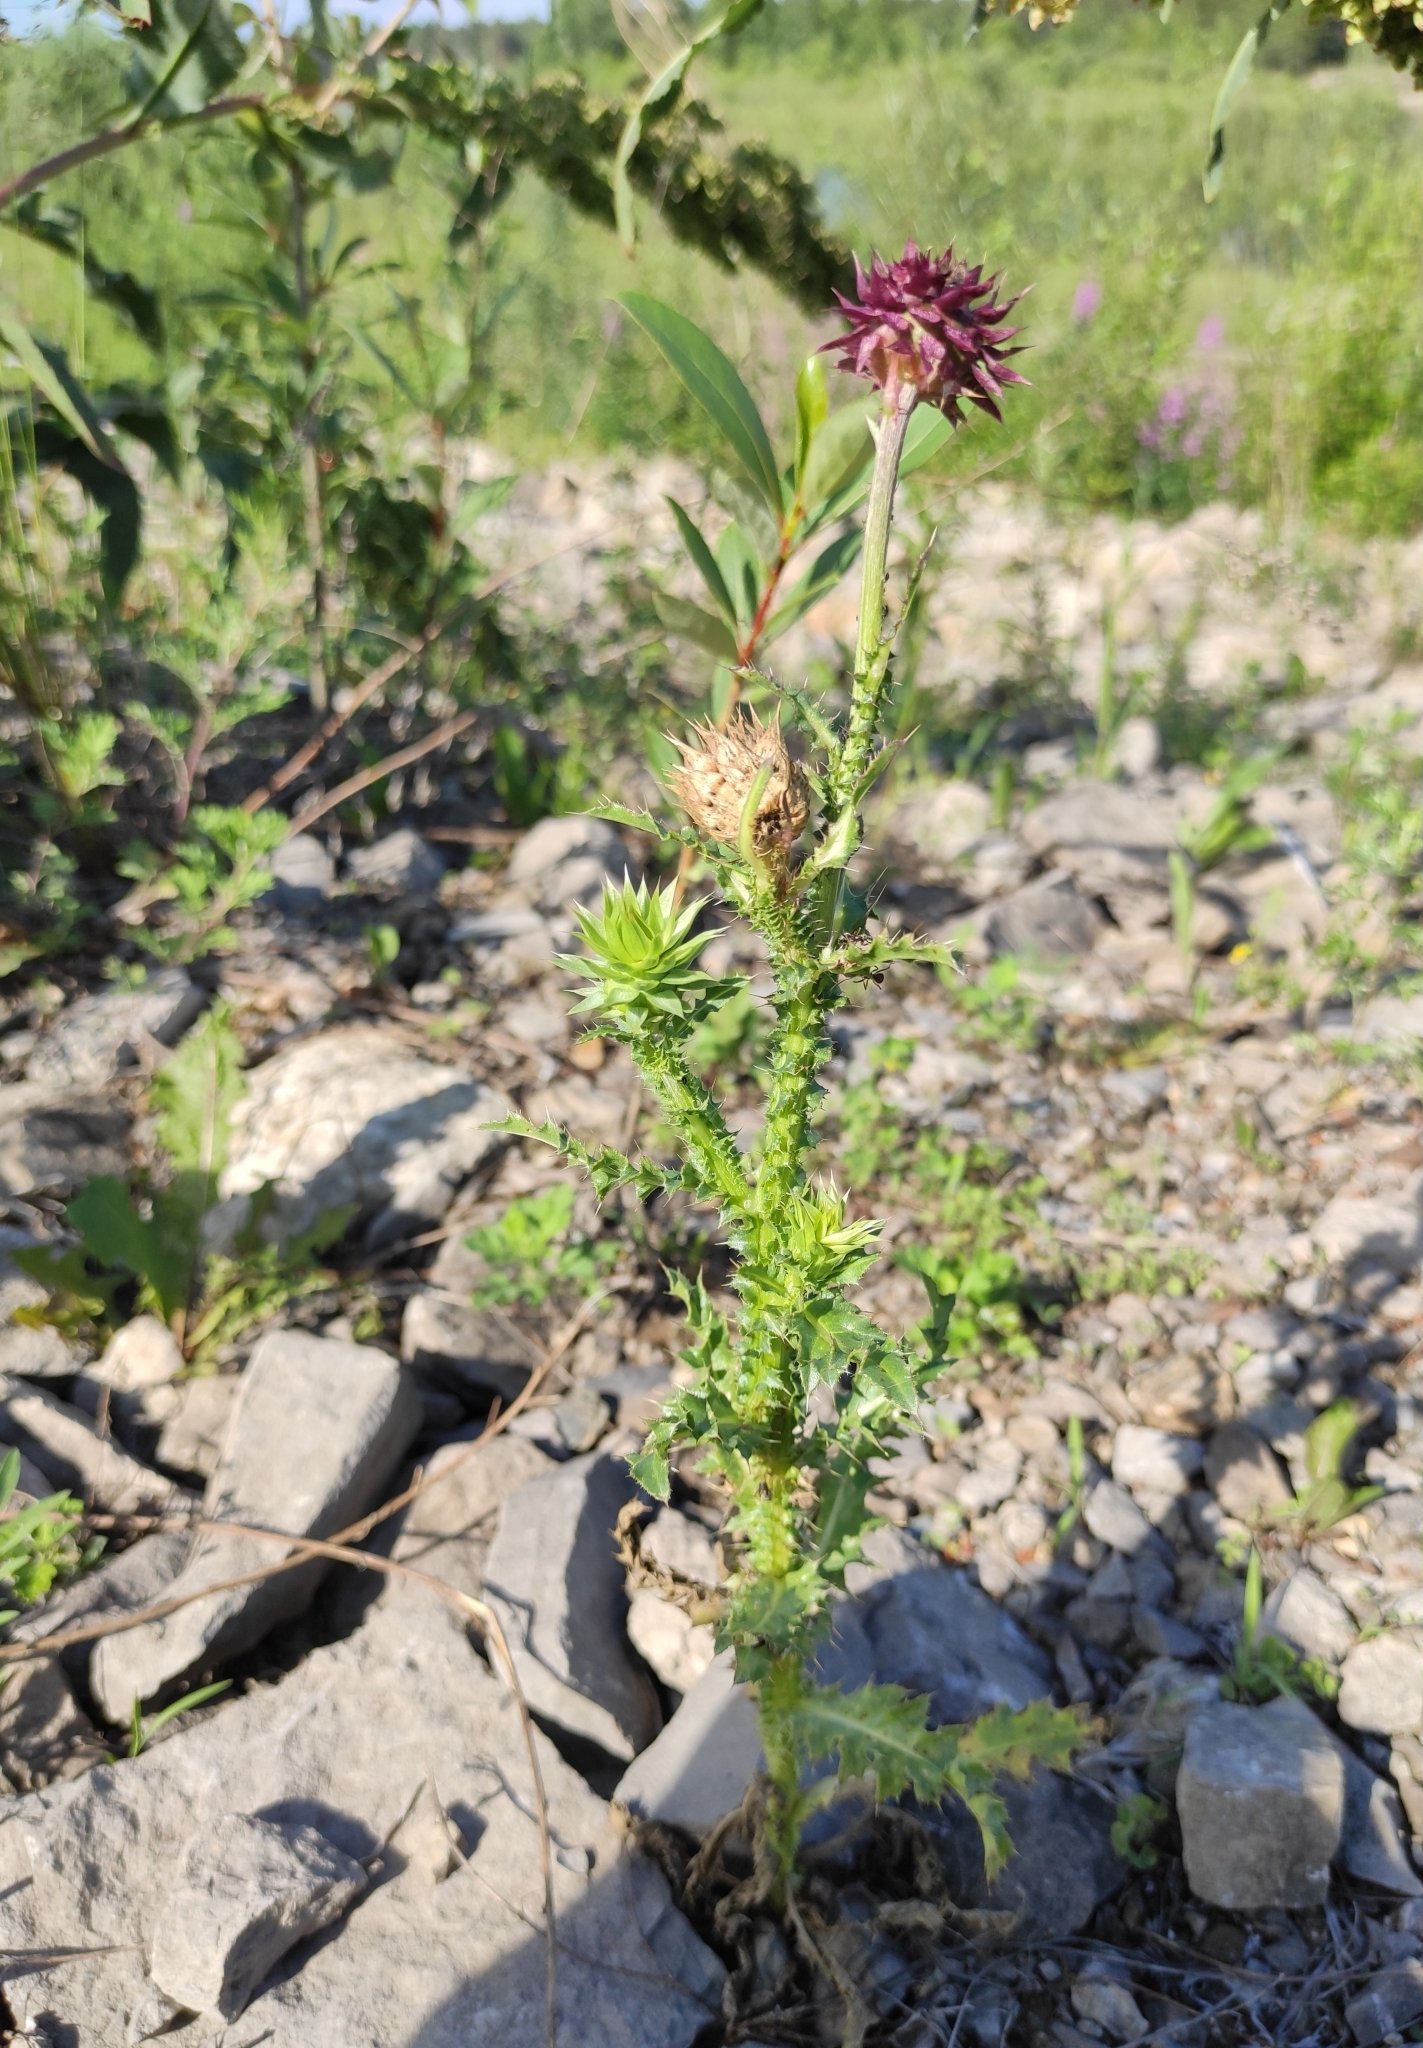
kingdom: Plantae
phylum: Tracheophyta
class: Magnoliopsida
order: Asterales
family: Asteraceae
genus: Carduus
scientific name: Carduus nutans
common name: Musk thistle
